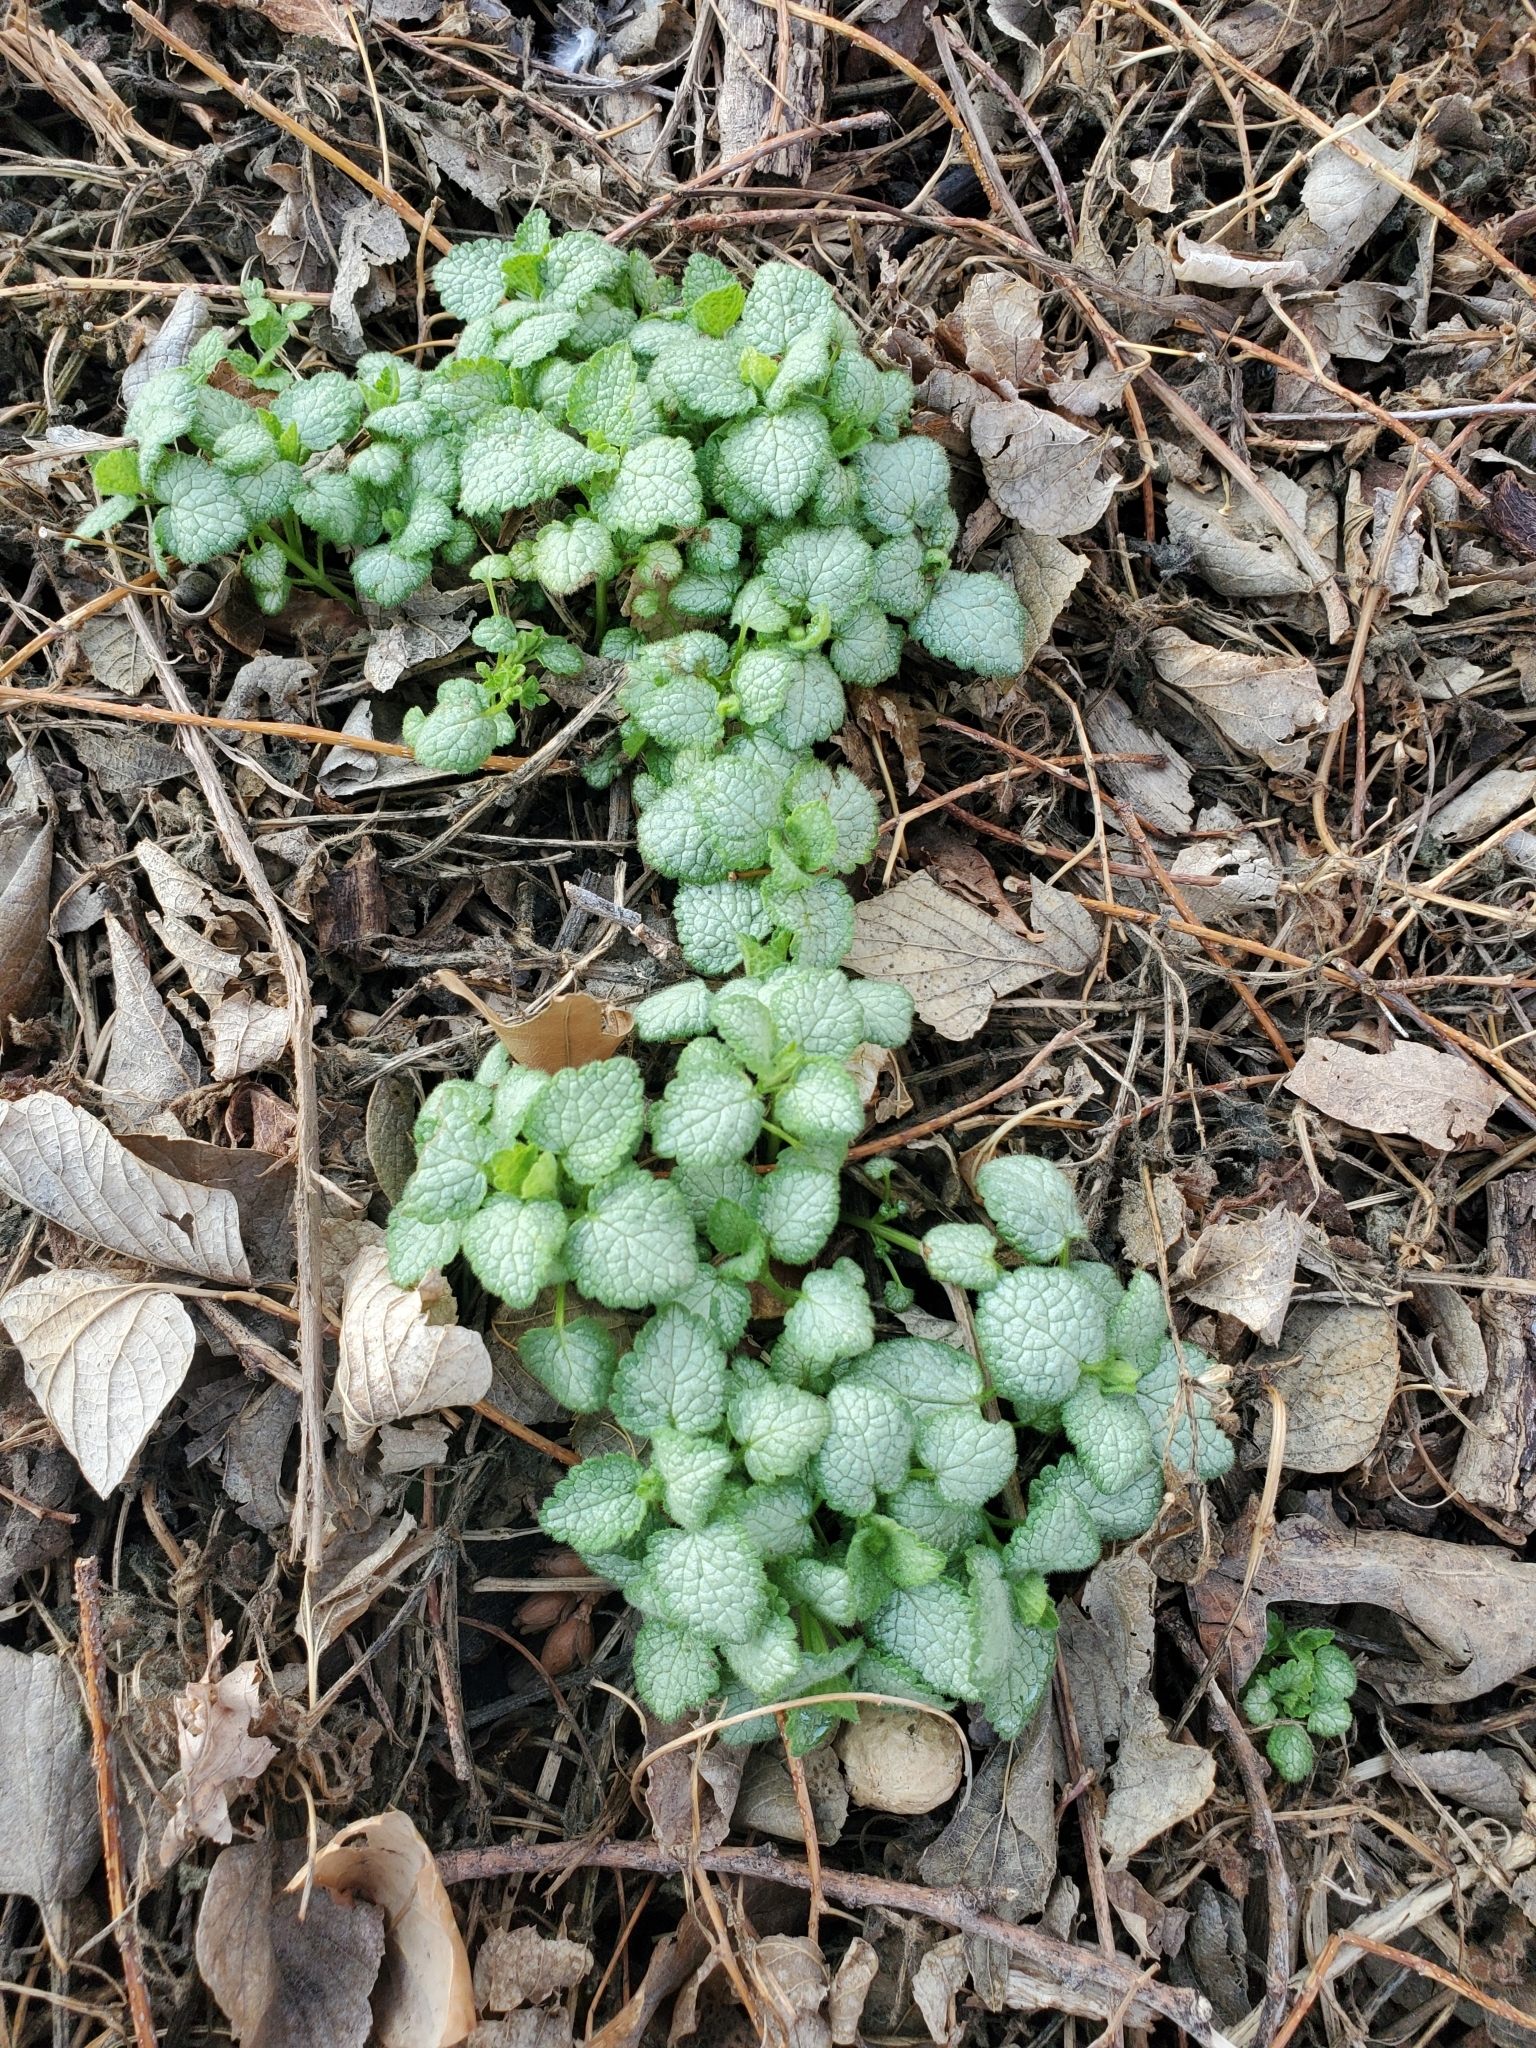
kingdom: Plantae
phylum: Tracheophyta
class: Magnoliopsida
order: Lamiales
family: Lamiaceae
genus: Lamium
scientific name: Lamium maculatum
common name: Spotted dead-nettle
